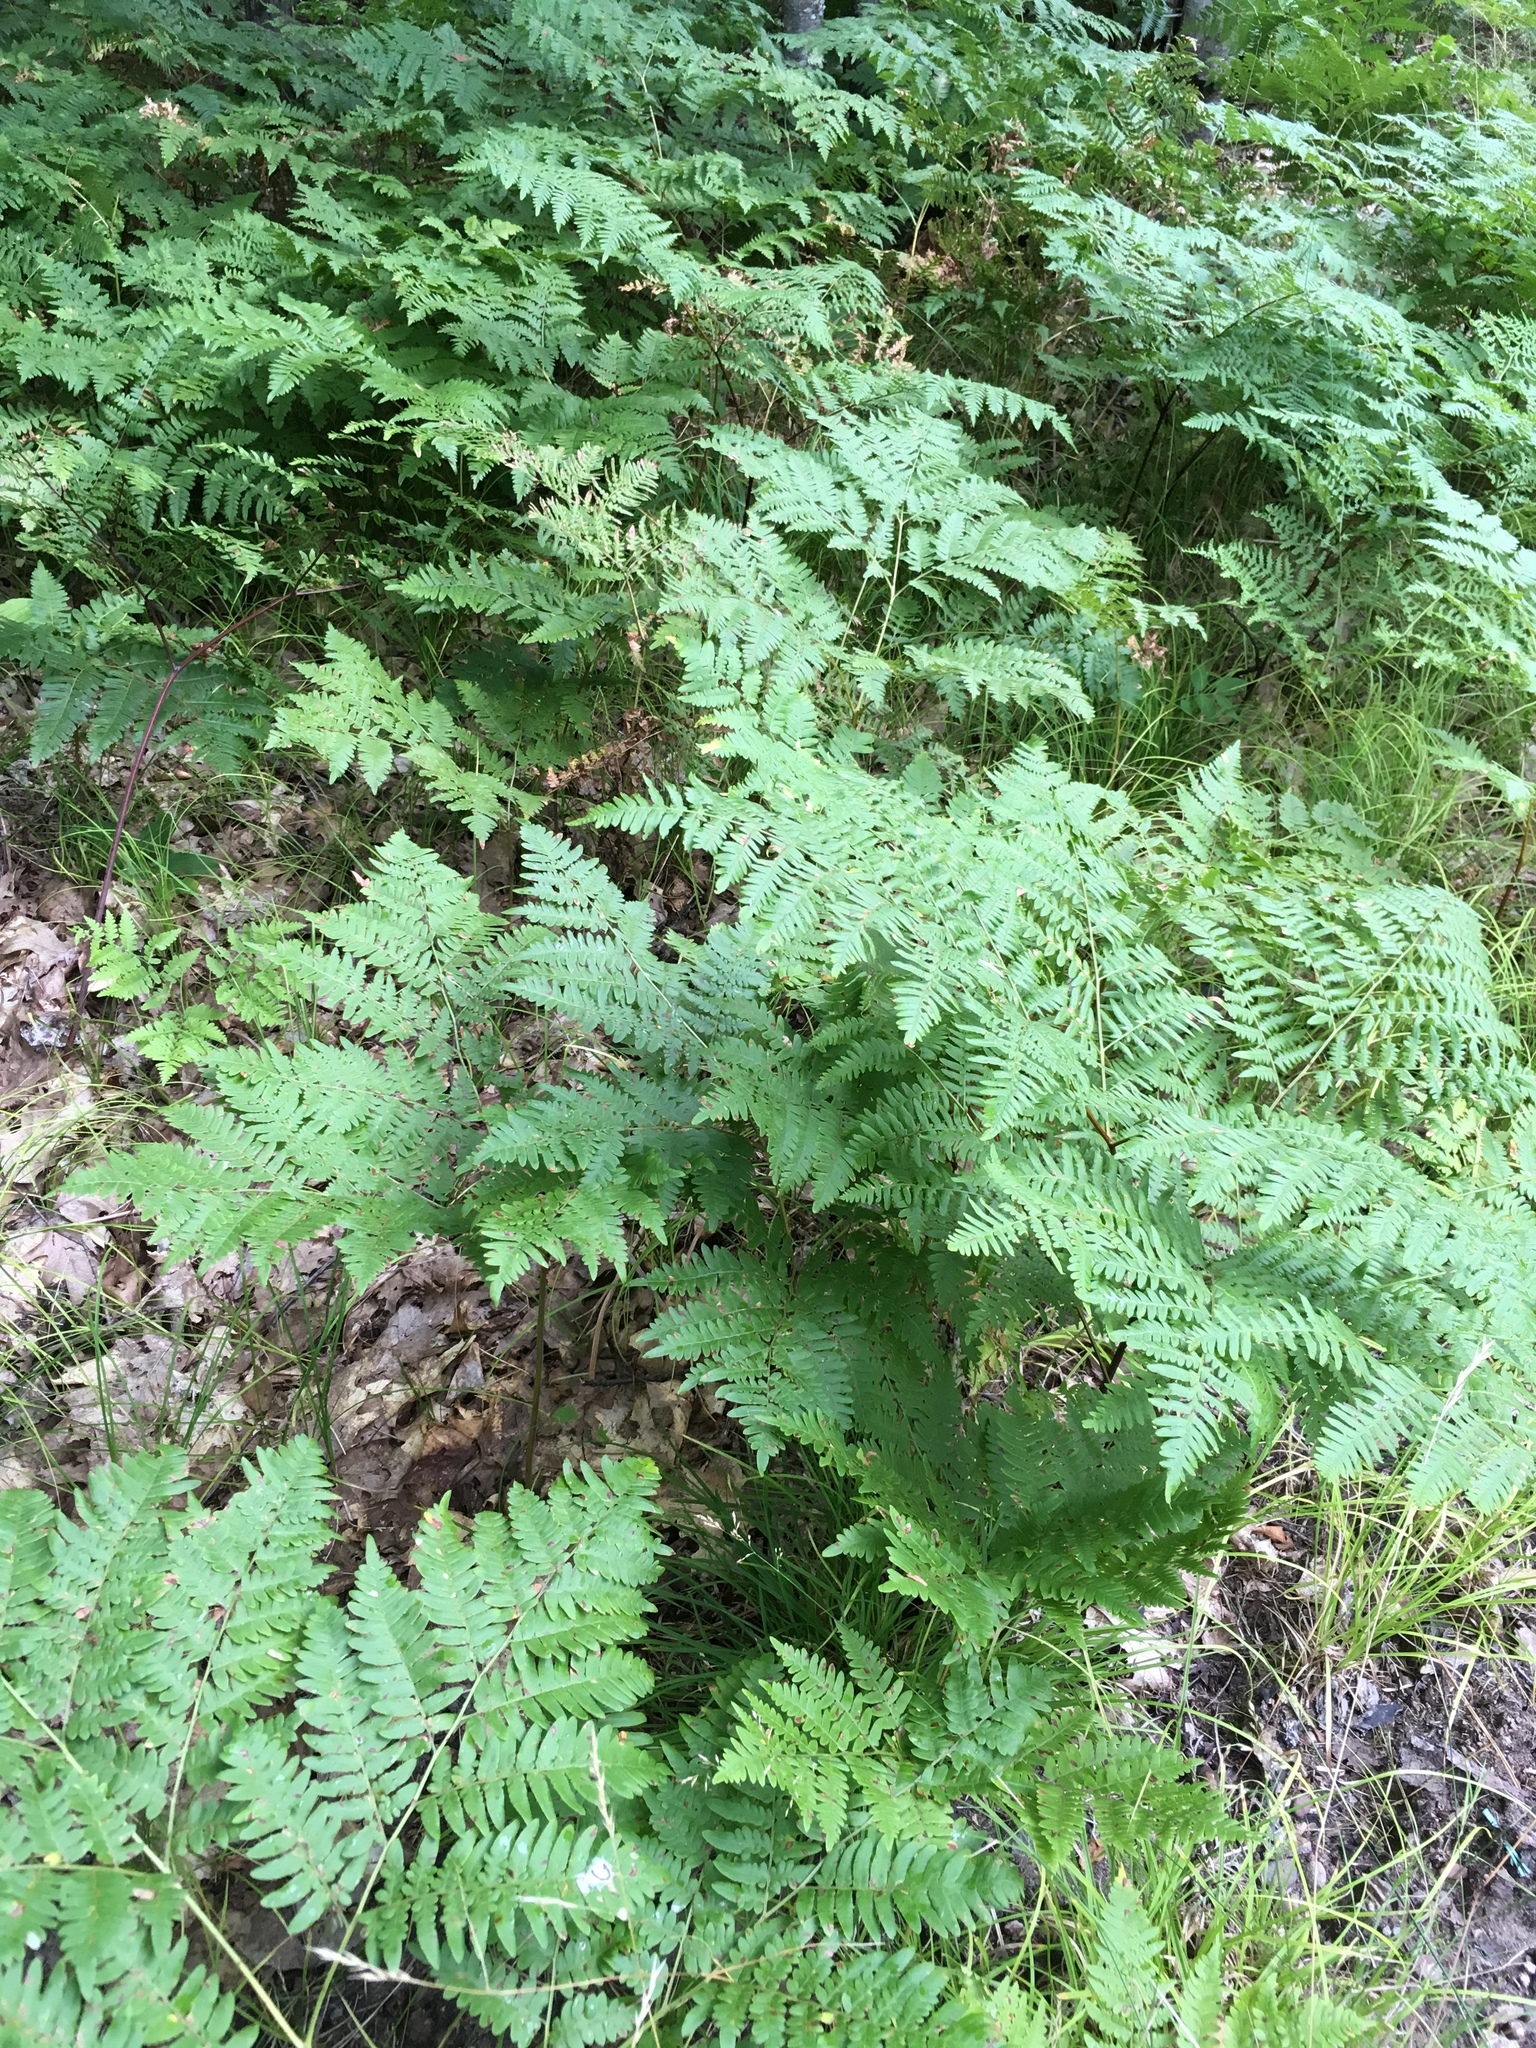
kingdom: Plantae
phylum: Tracheophyta
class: Polypodiopsida
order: Polypodiales
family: Dennstaedtiaceae
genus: Pteridium
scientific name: Pteridium aquilinum
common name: Bracken
